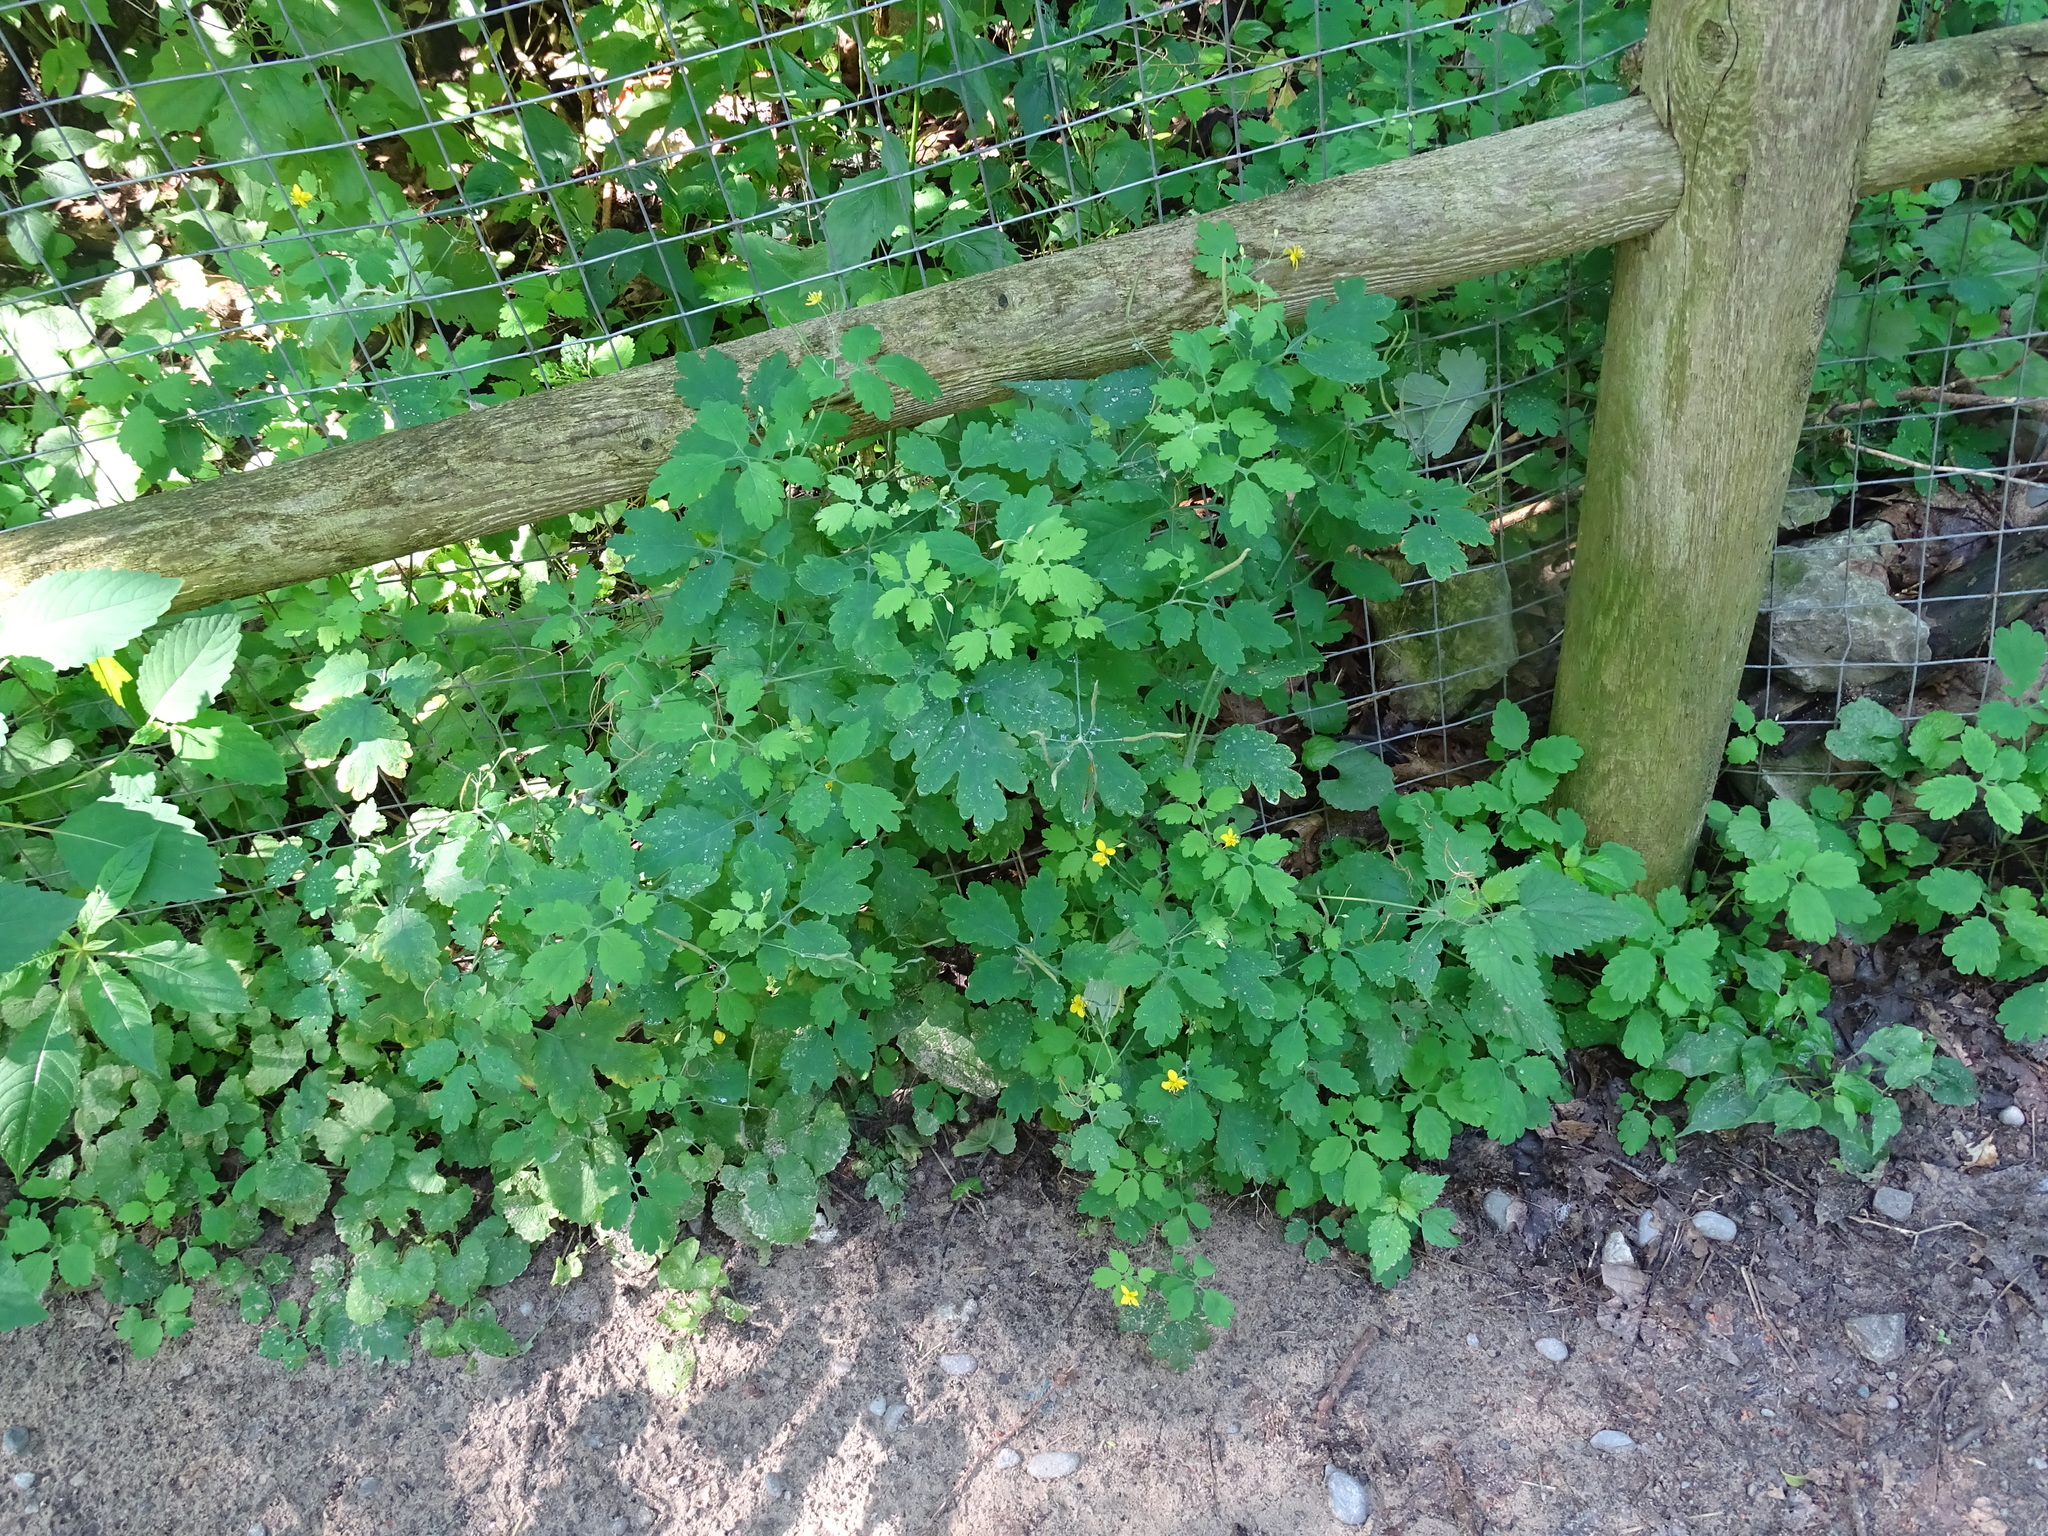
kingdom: Plantae
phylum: Tracheophyta
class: Magnoliopsida
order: Ranunculales
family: Papaveraceae
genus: Chelidonium
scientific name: Chelidonium majus
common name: Greater celandine
